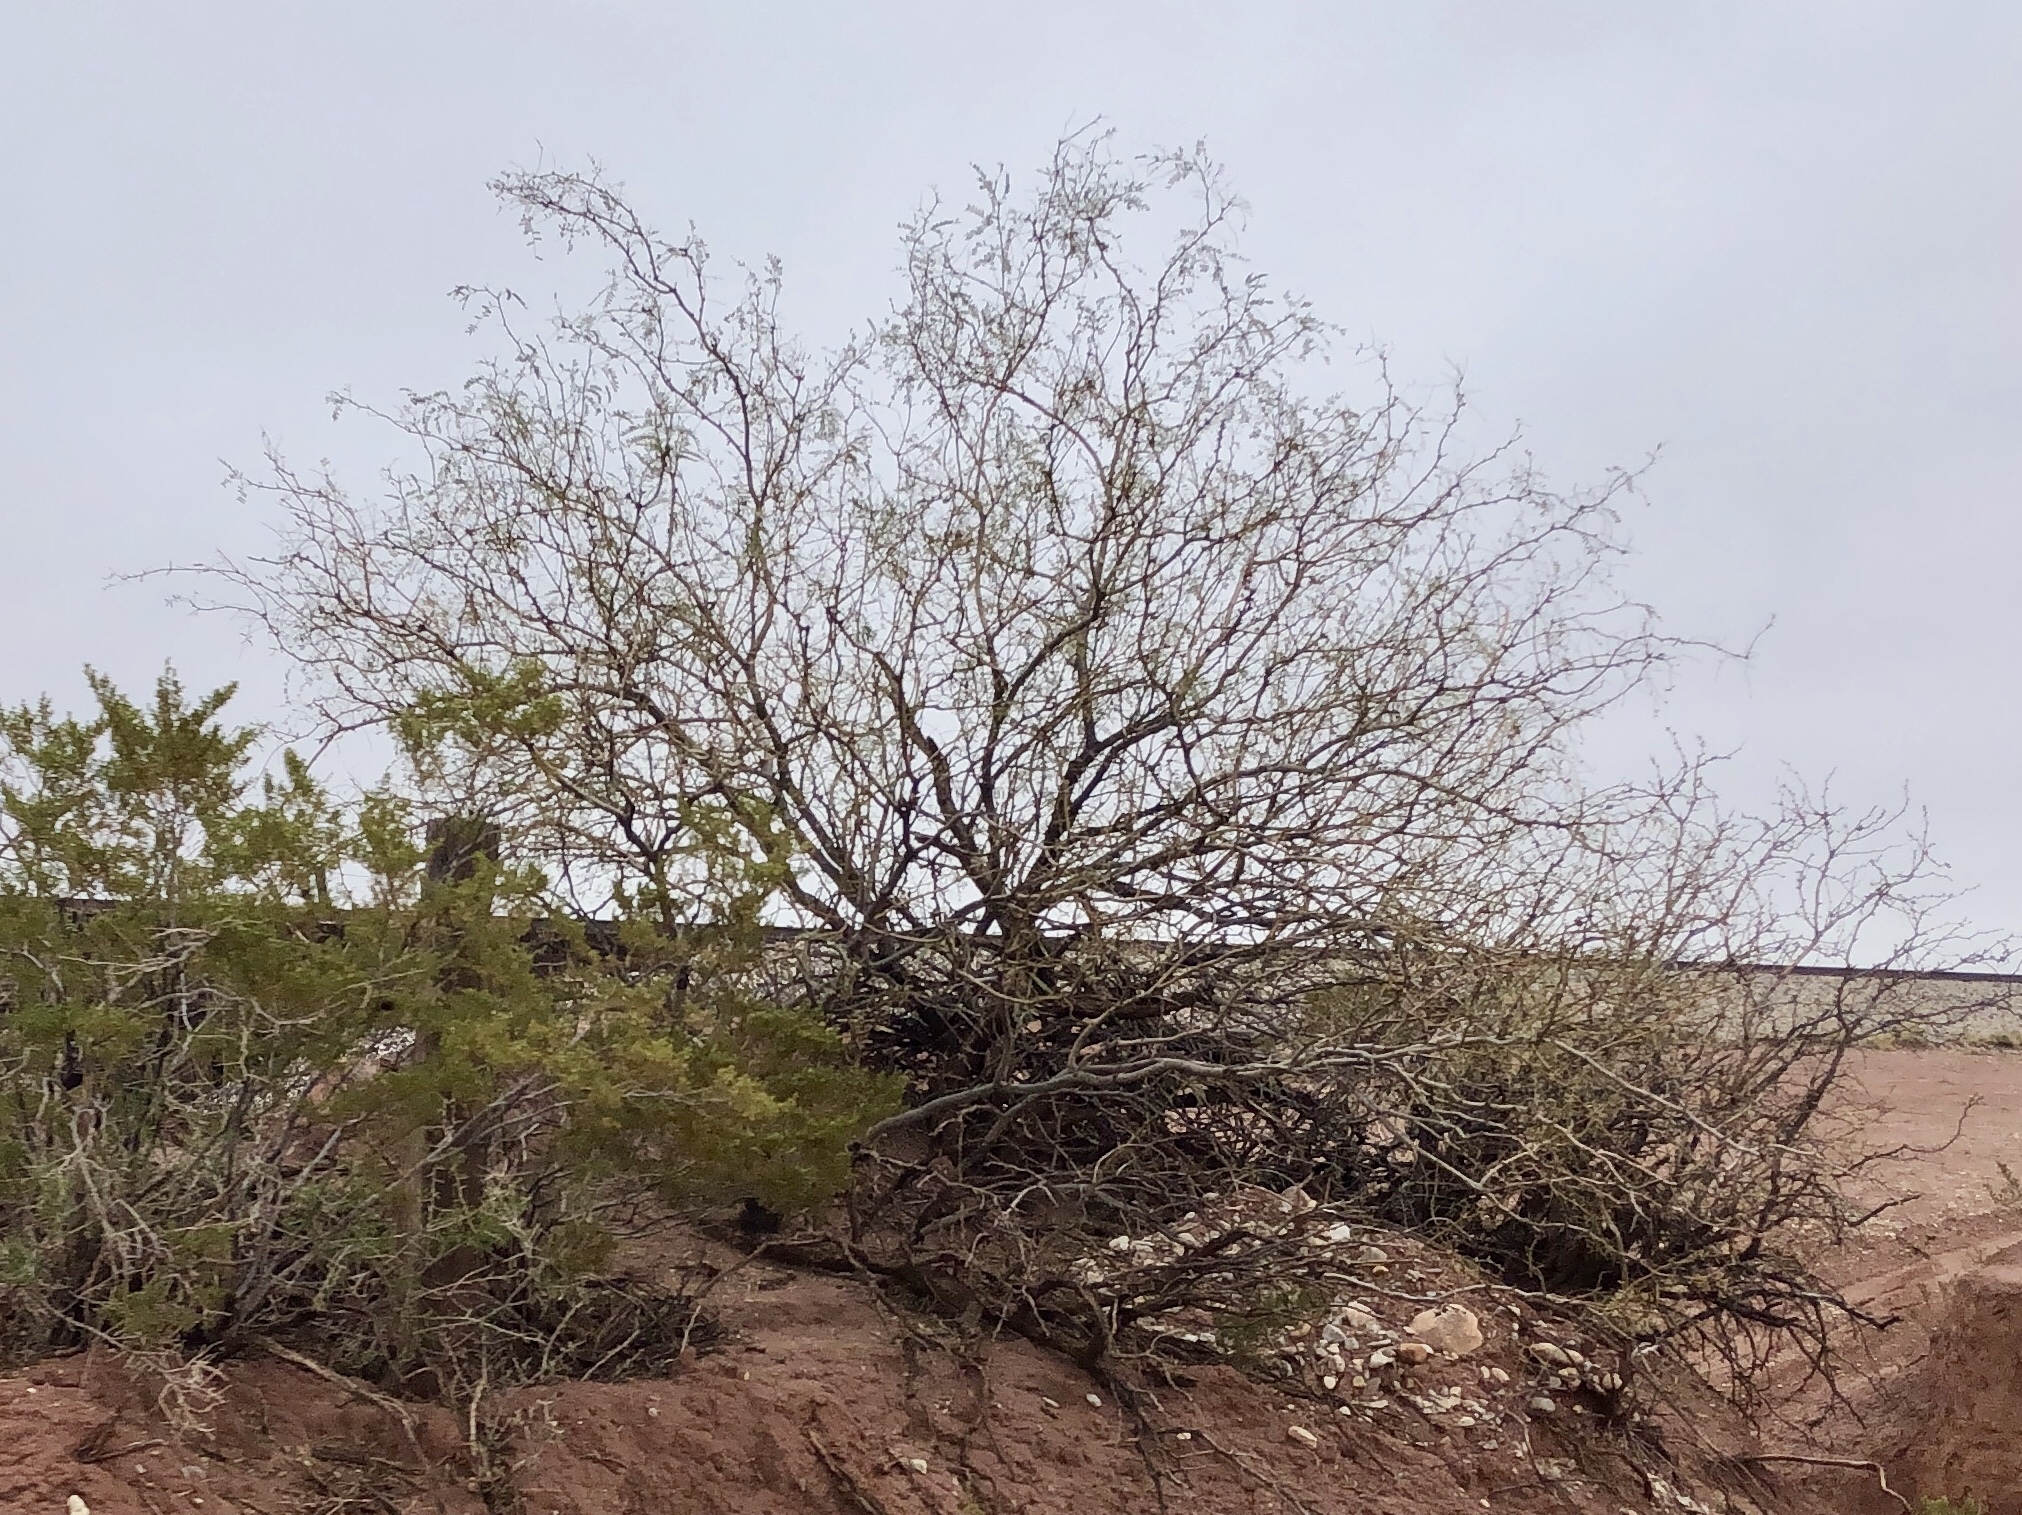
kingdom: Plantae
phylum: Tracheophyta
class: Magnoliopsida
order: Fabales
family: Fabaceae
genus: Prosopis
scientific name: Prosopis glandulosa
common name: Honey mesquite
